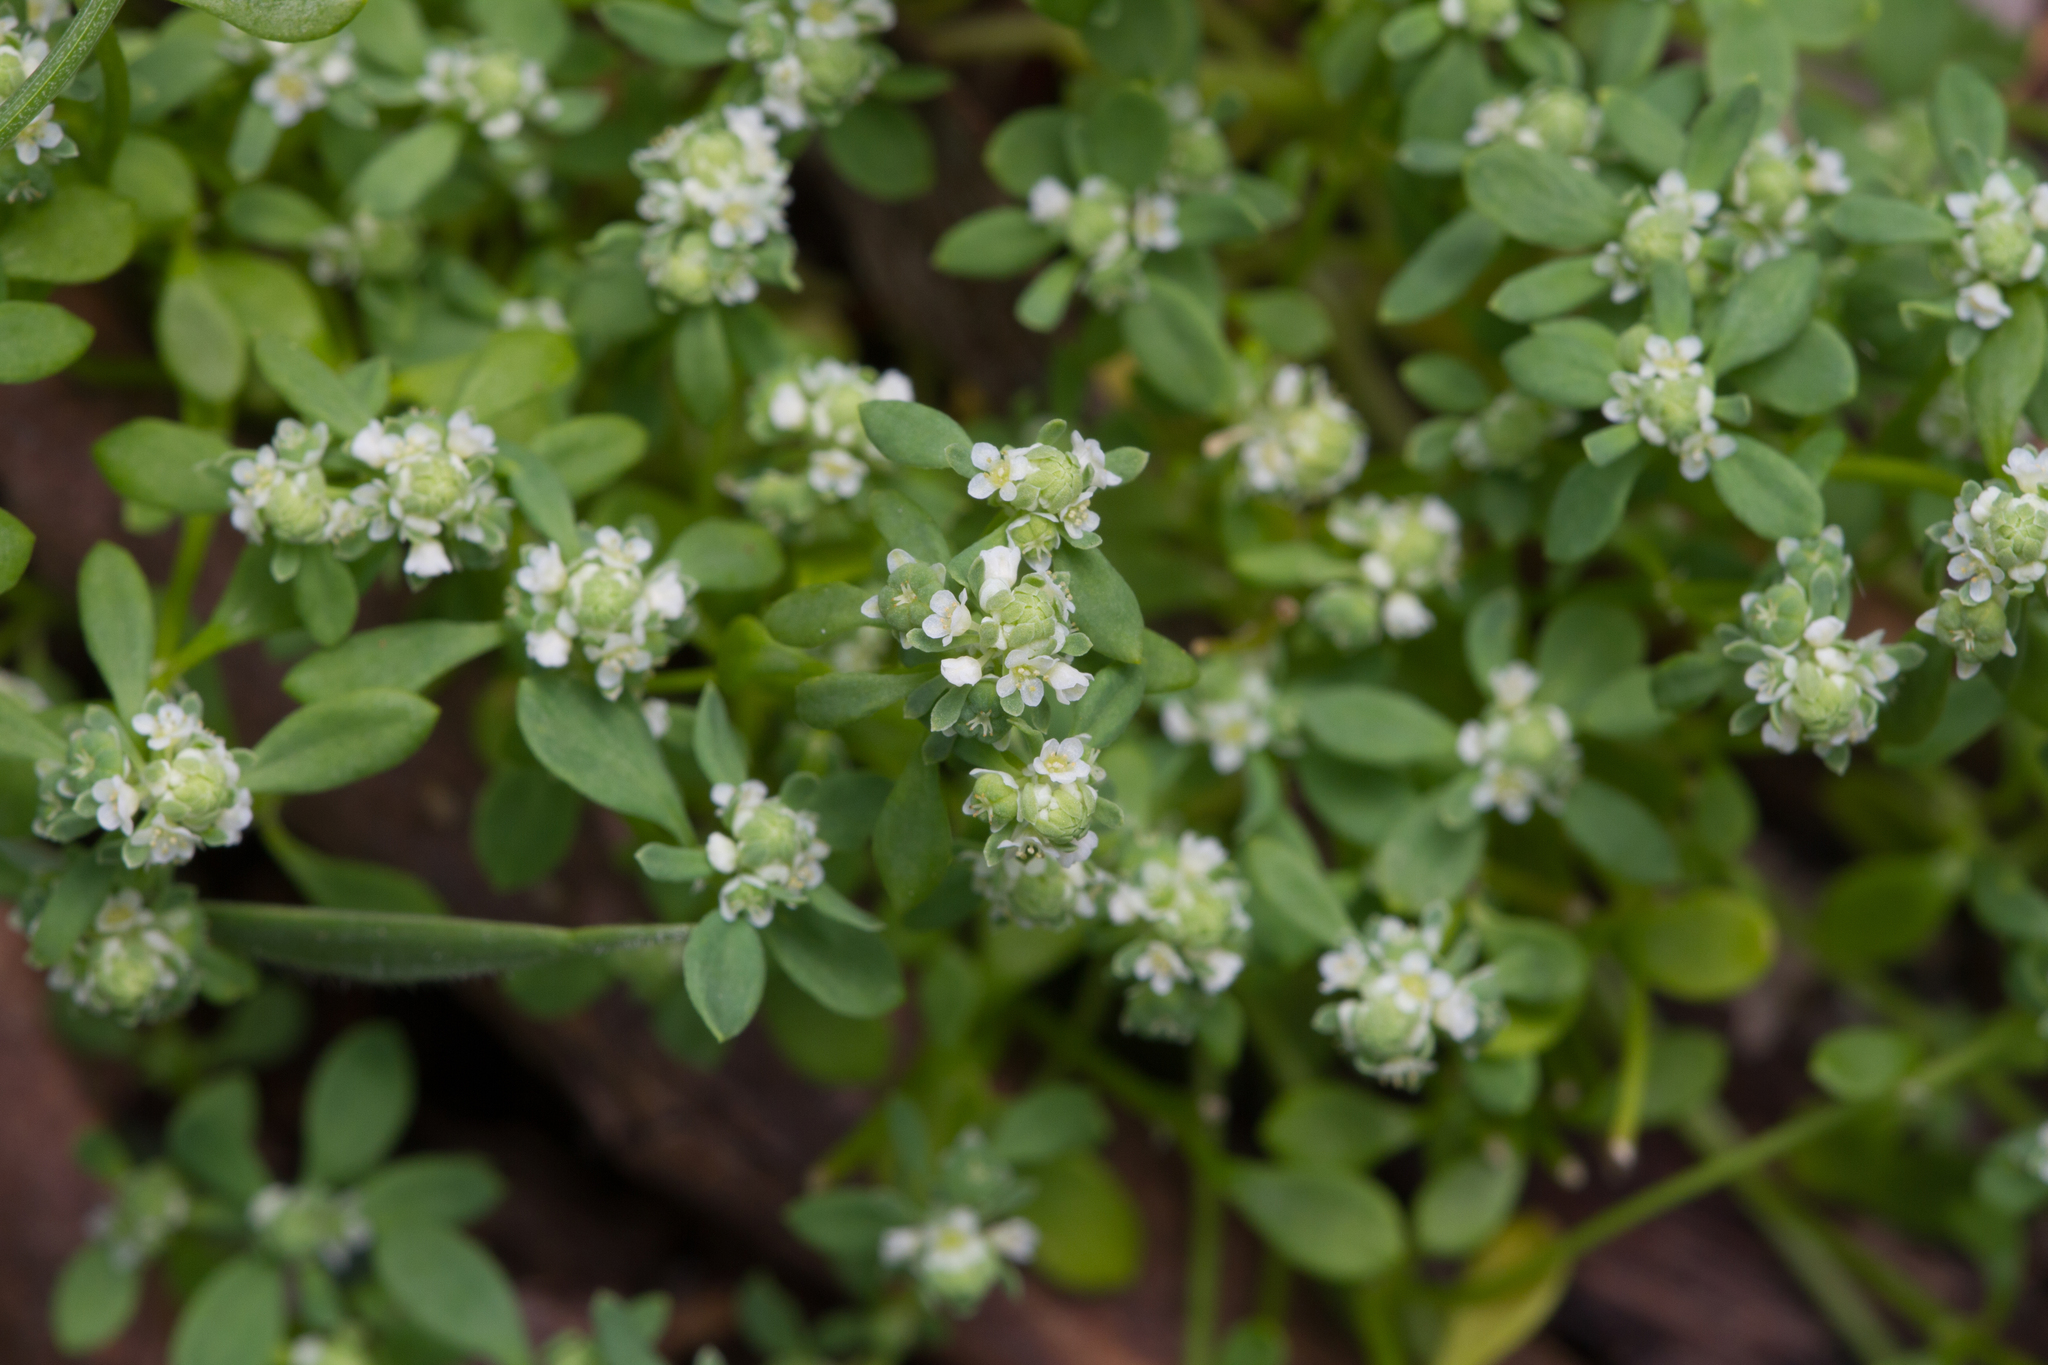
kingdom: Plantae
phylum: Tracheophyta
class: Magnoliopsida
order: Malpighiales
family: Phyllanthaceae
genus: Poranthera
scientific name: Poranthera microphylla
